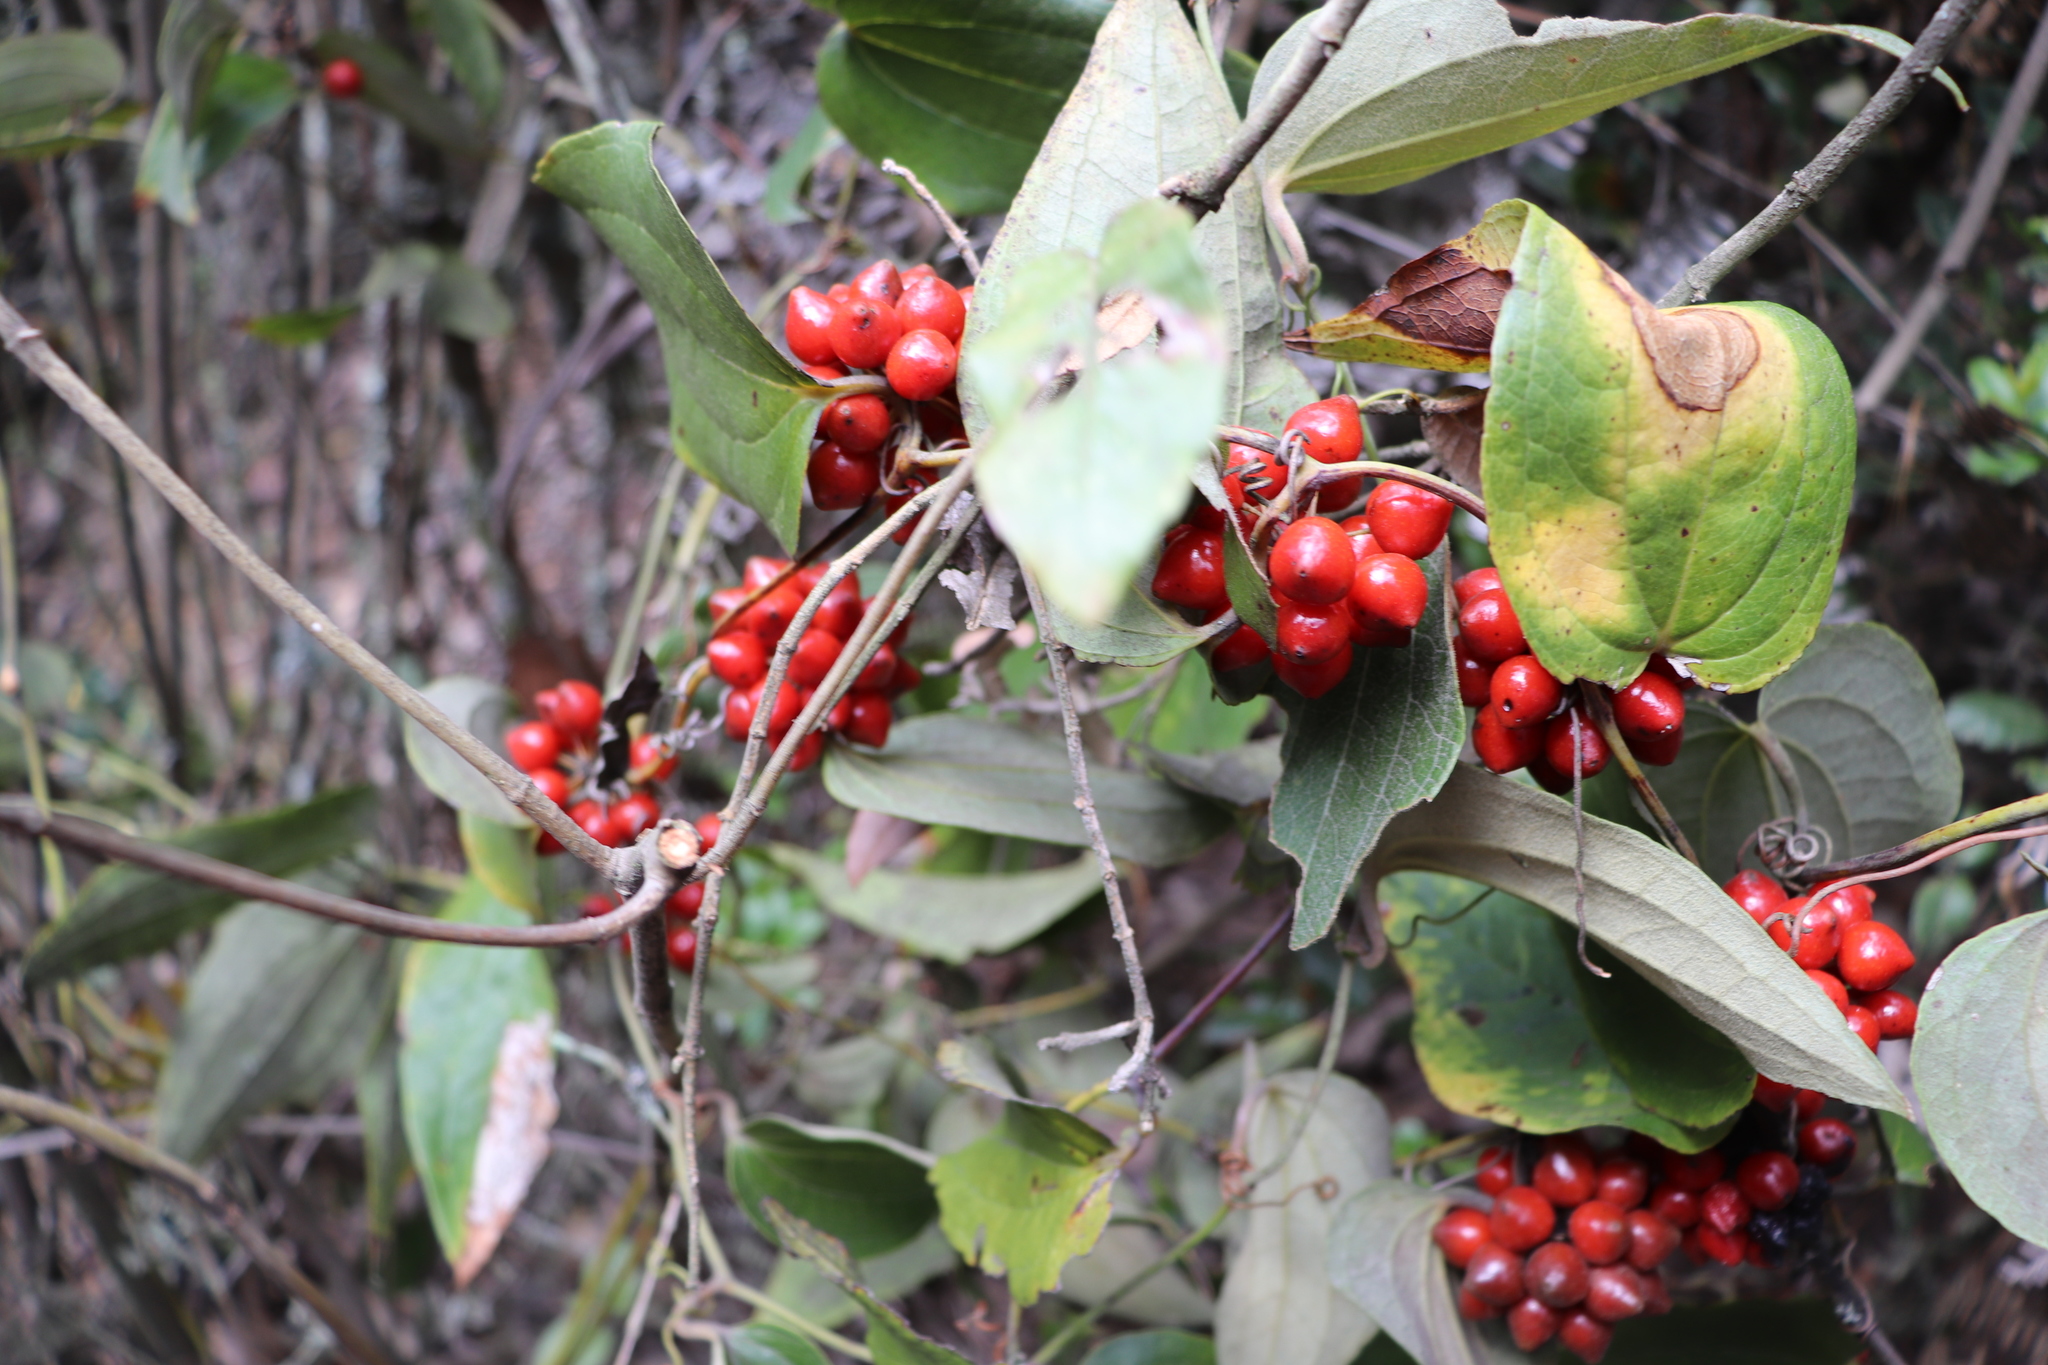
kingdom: Plantae
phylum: Tracheophyta
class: Liliopsida
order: Liliales
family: Smilacaceae
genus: Smilax
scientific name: Smilax tomentosa
